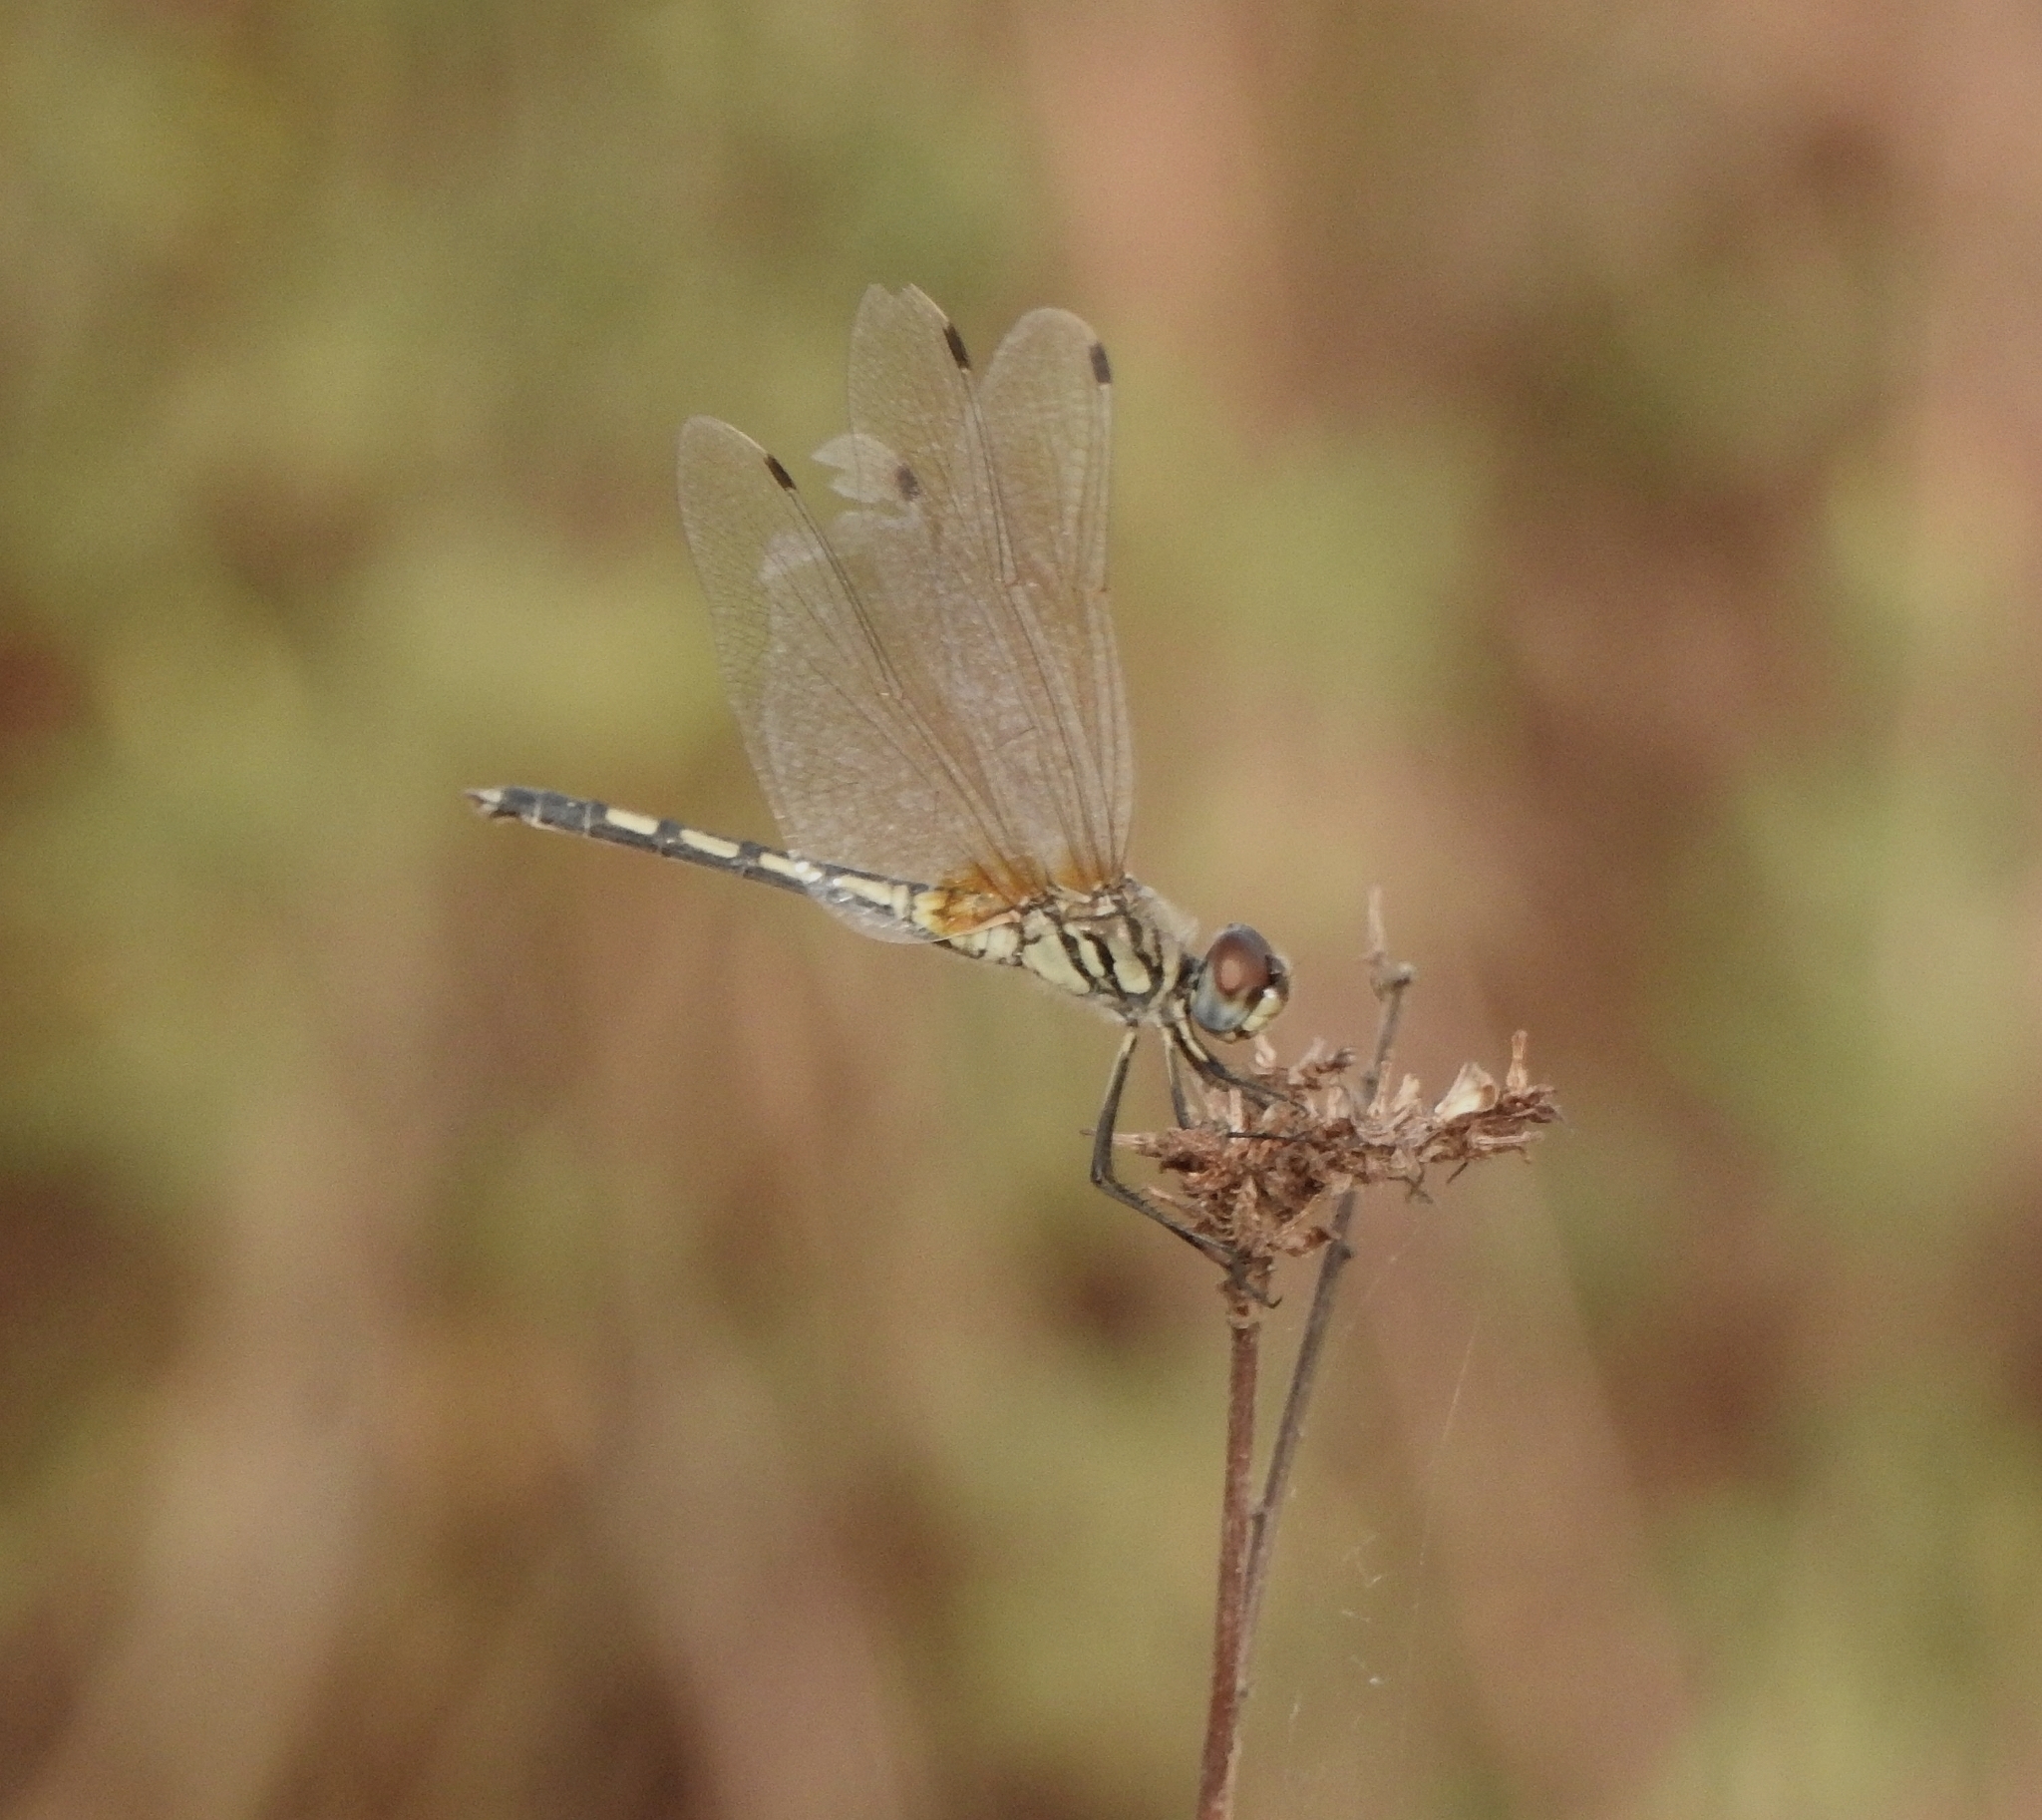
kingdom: Animalia
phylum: Arthropoda
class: Insecta
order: Odonata
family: Libellulidae
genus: Trithemis
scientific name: Trithemis pallidinervis
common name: Dancing dropwing
